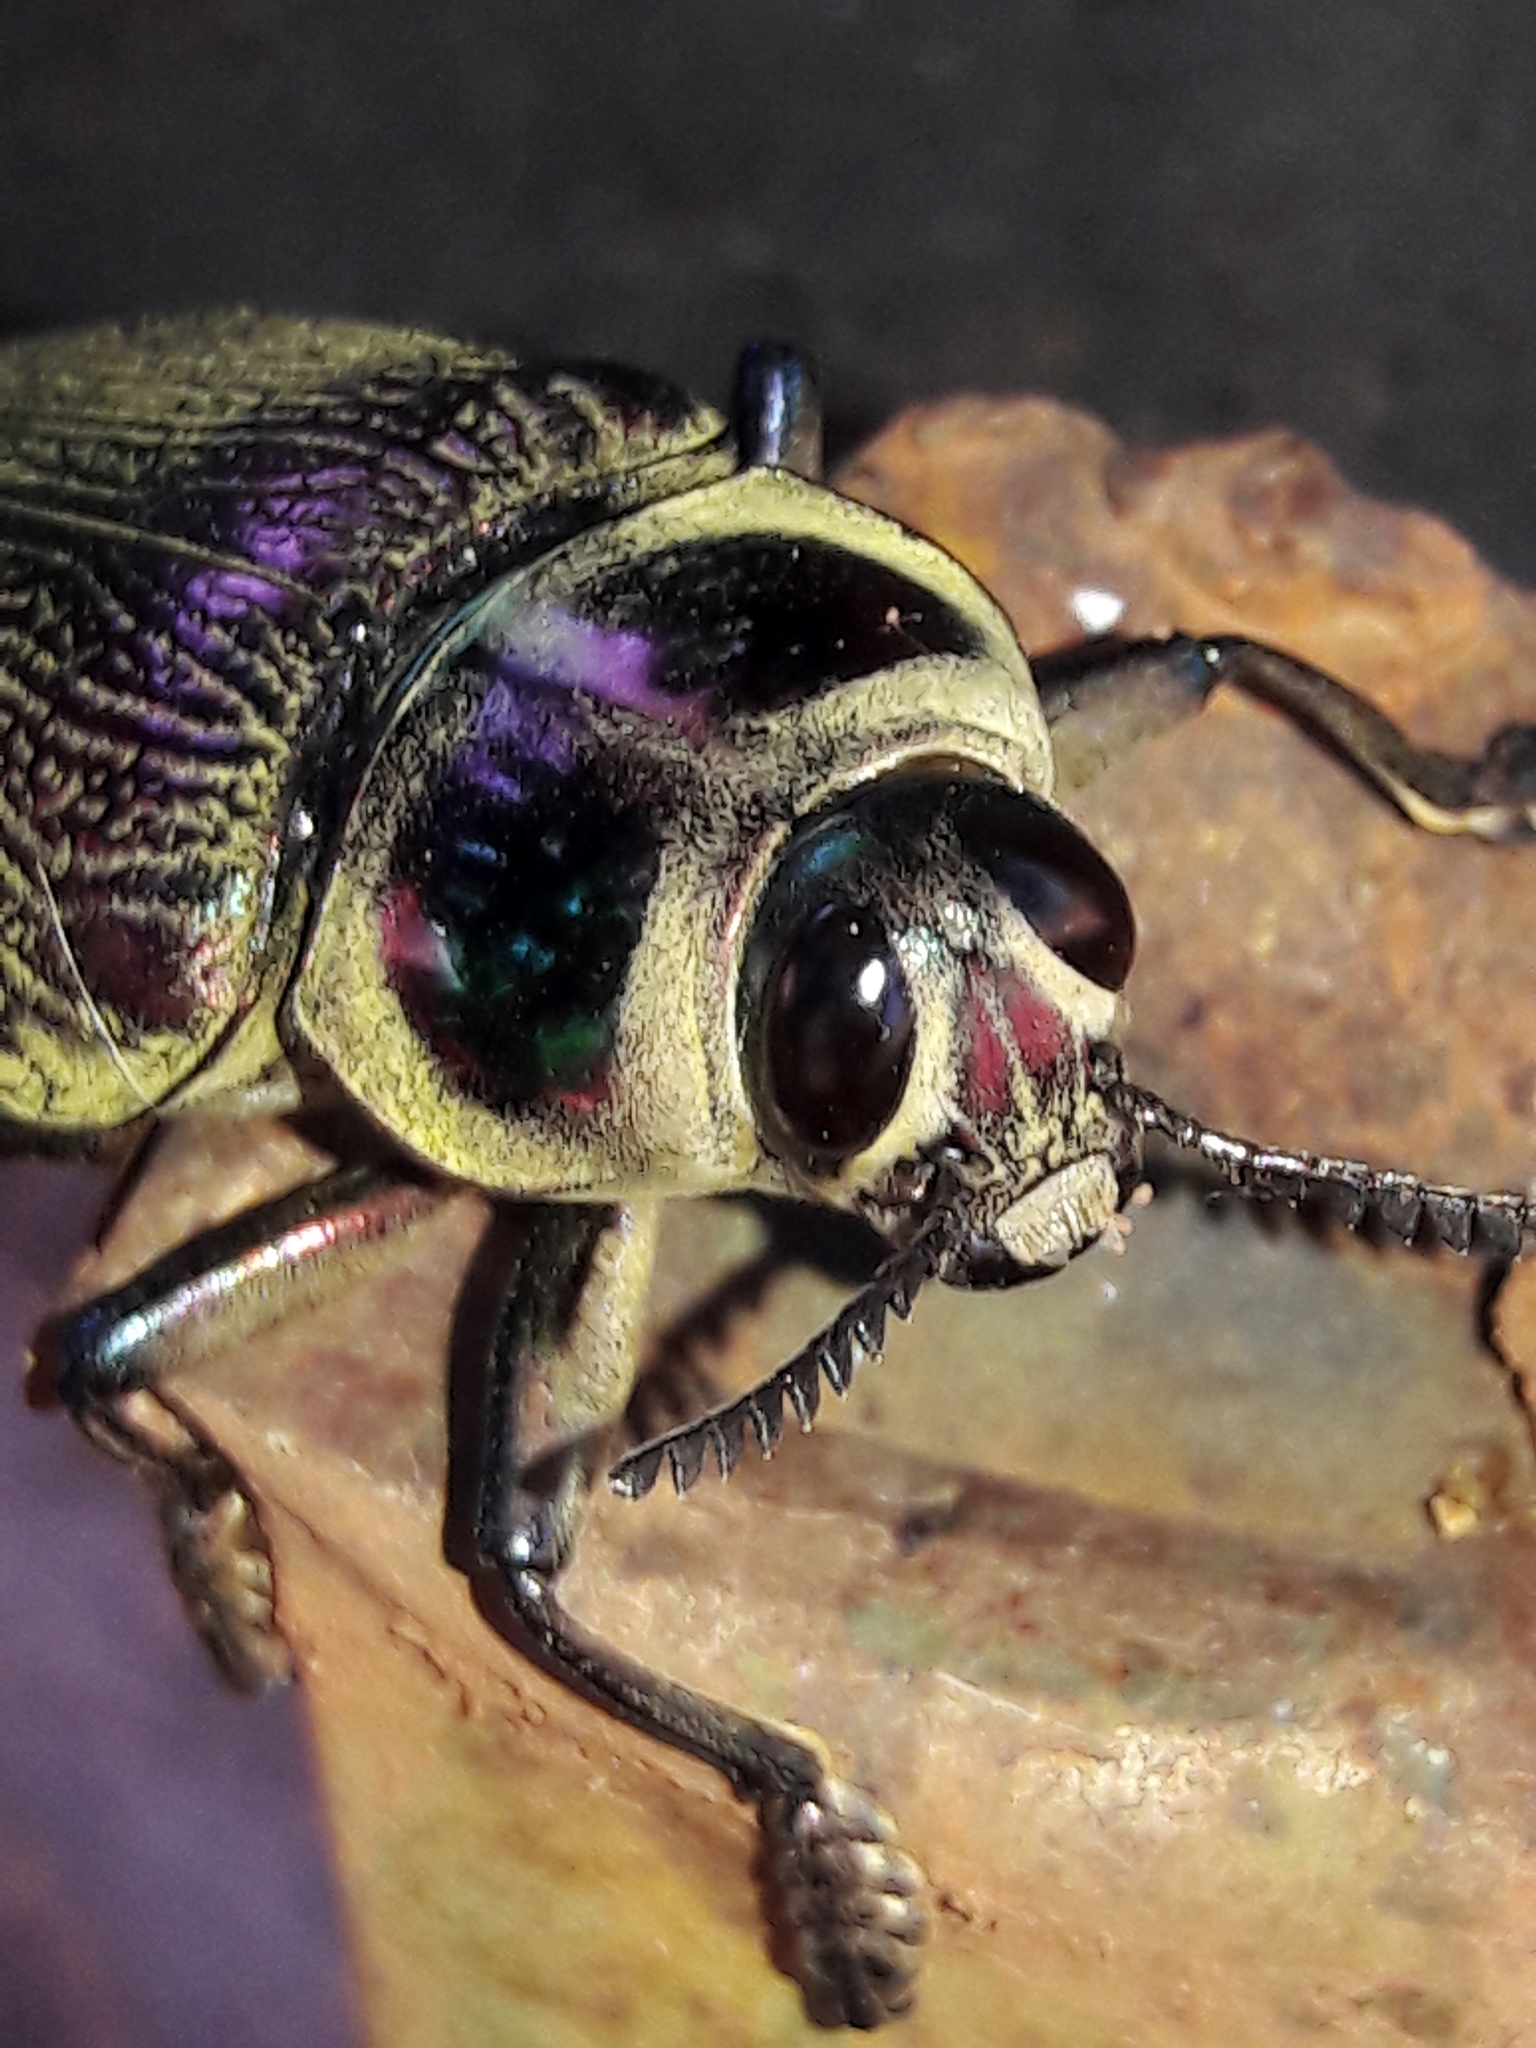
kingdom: Animalia
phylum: Arthropoda
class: Insecta
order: Coleoptera
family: Buprestidae
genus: Euchroma
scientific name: Euchroma giganteum
